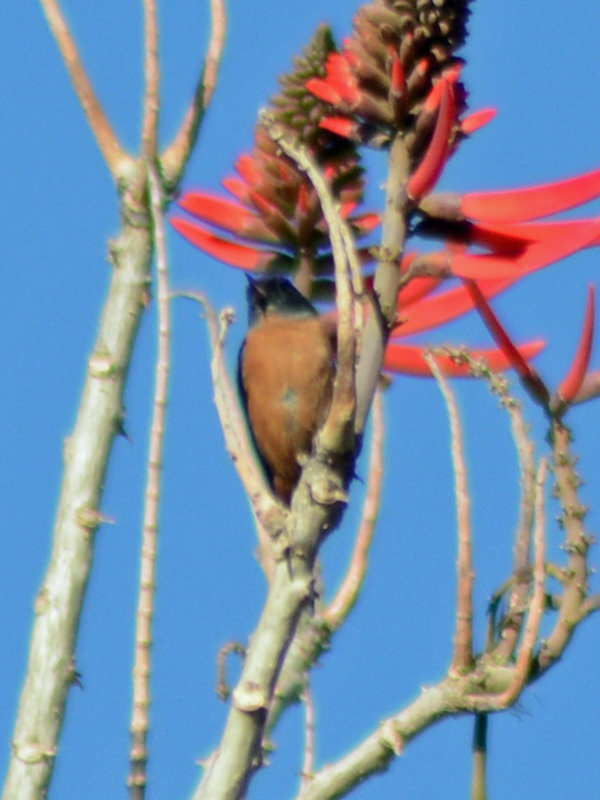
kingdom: Animalia
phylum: Chordata
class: Aves
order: Passeriformes
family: Thraupidae
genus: Diglossa
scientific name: Diglossa baritula
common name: Cinnamon-bellied flowerpiercer
